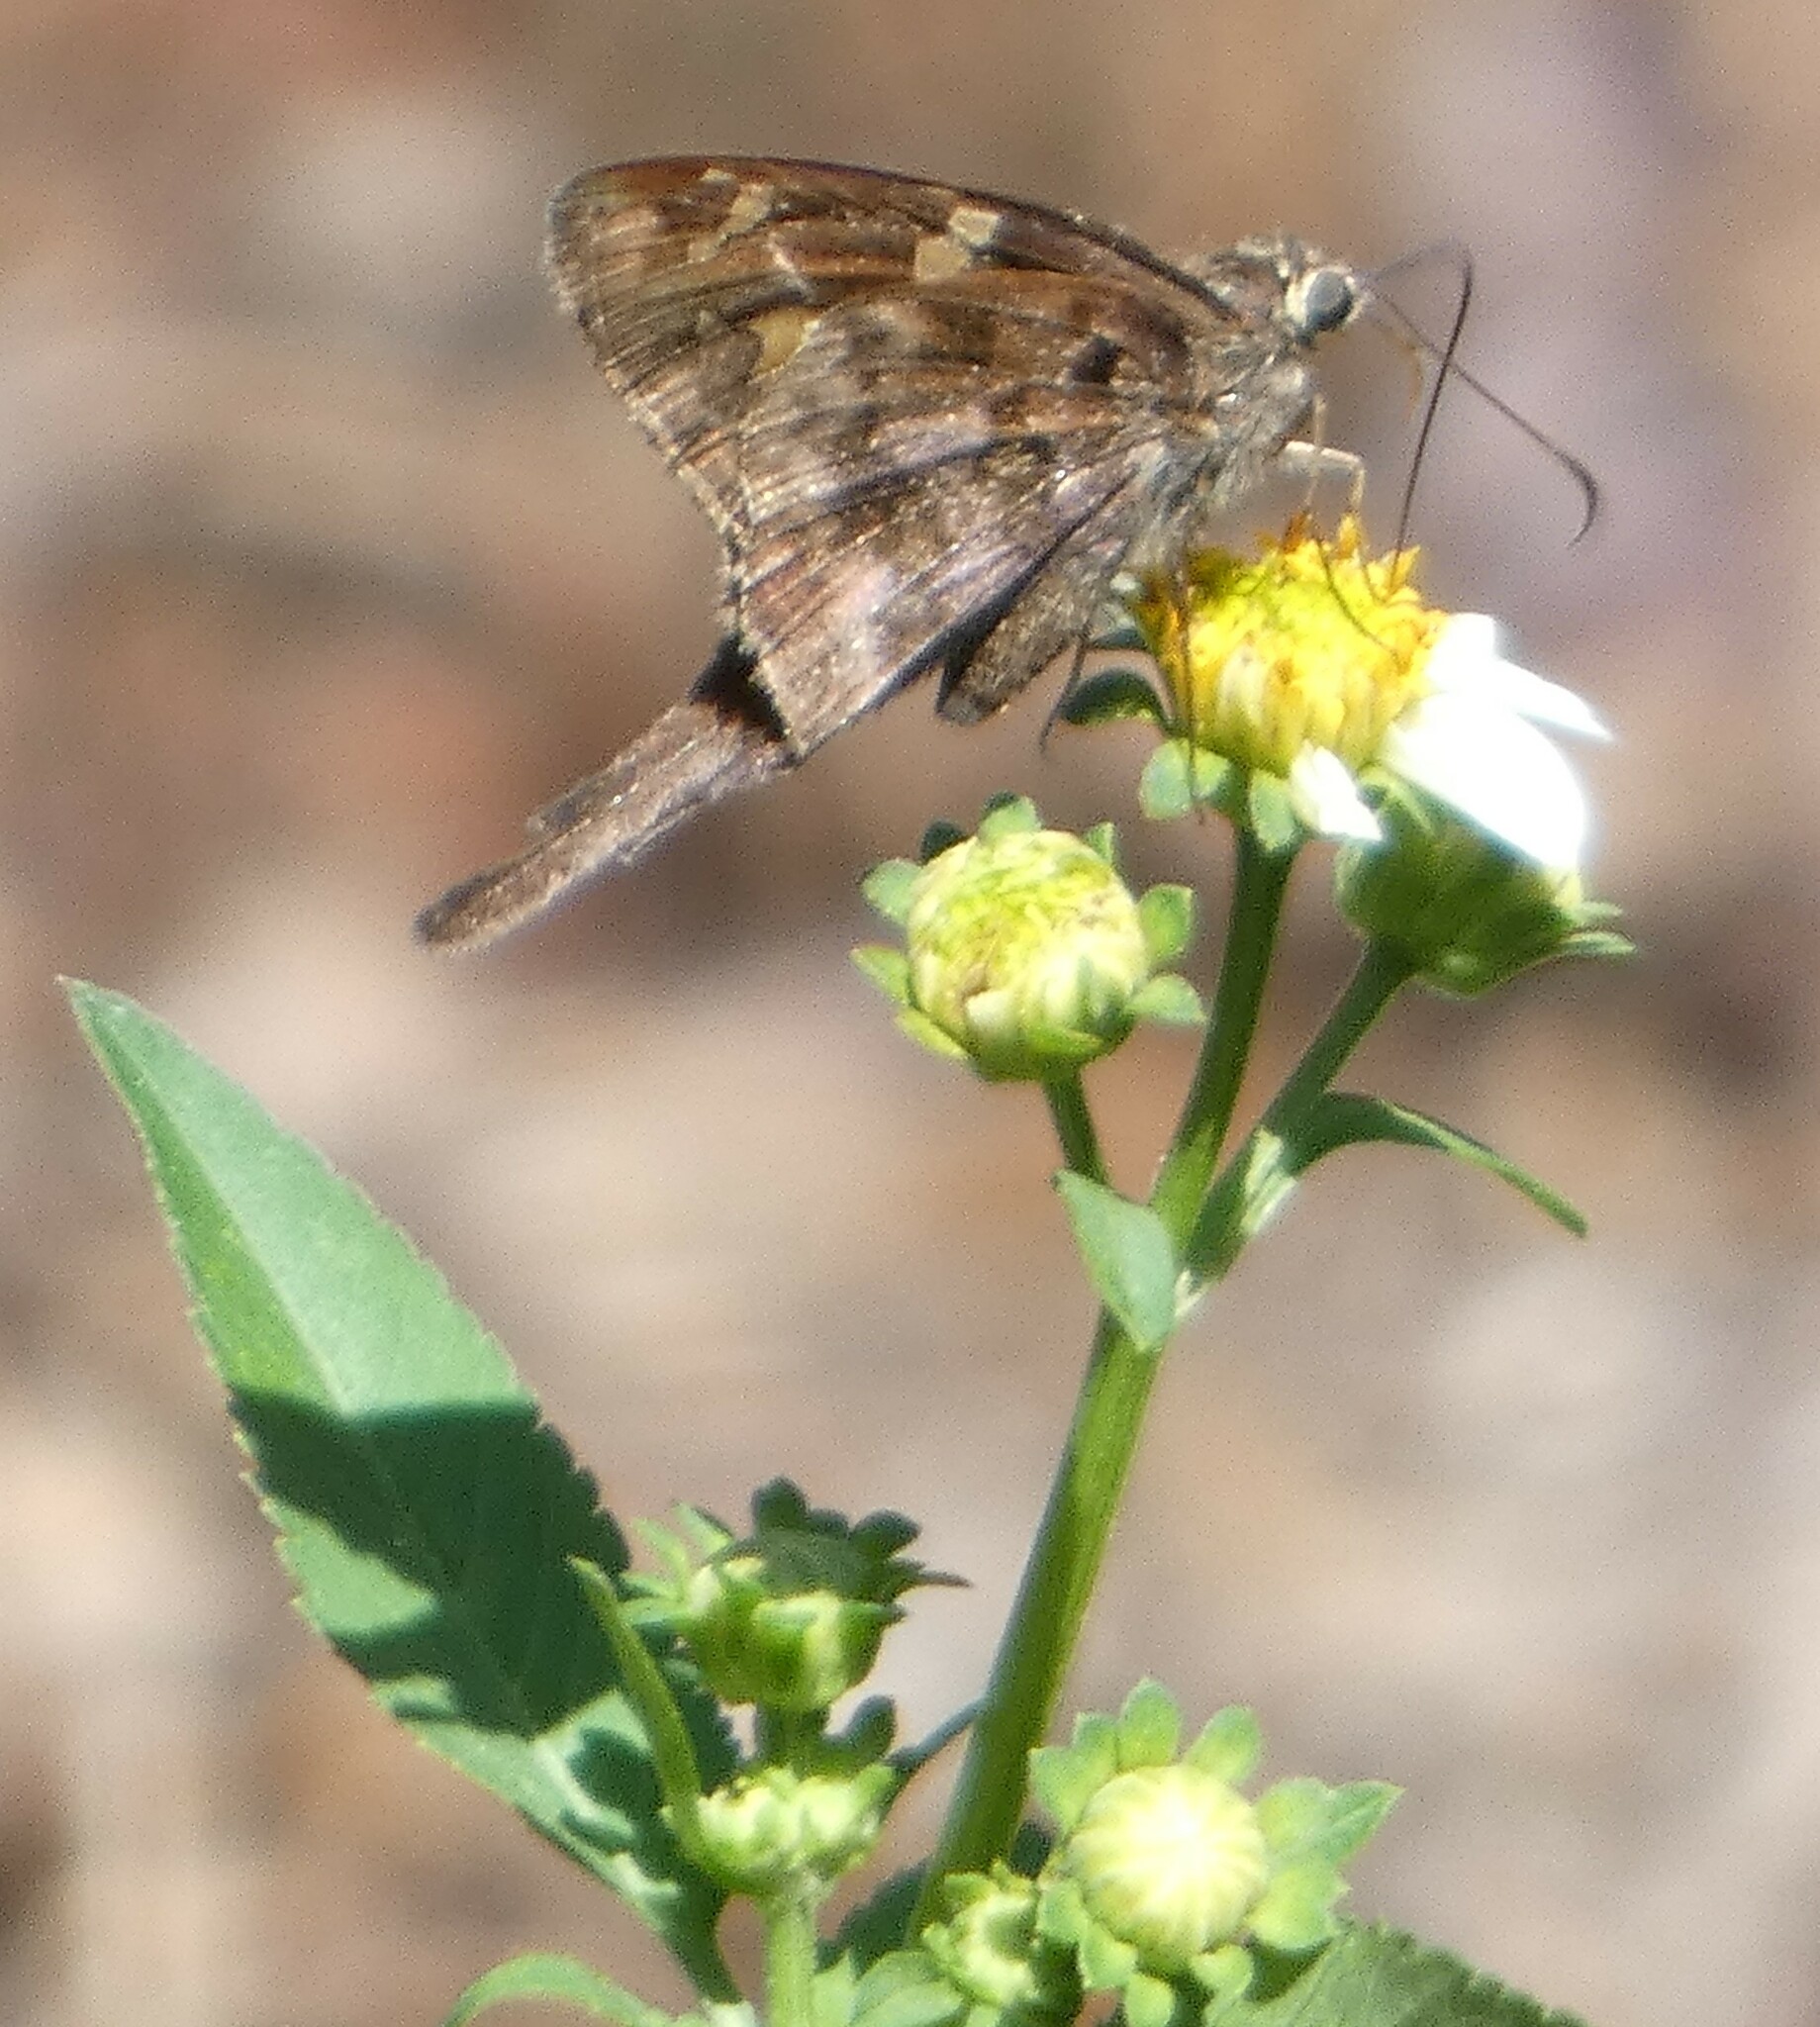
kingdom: Animalia
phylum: Arthropoda
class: Insecta
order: Lepidoptera
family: Hesperiidae
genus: Thorybes
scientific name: Thorybes
